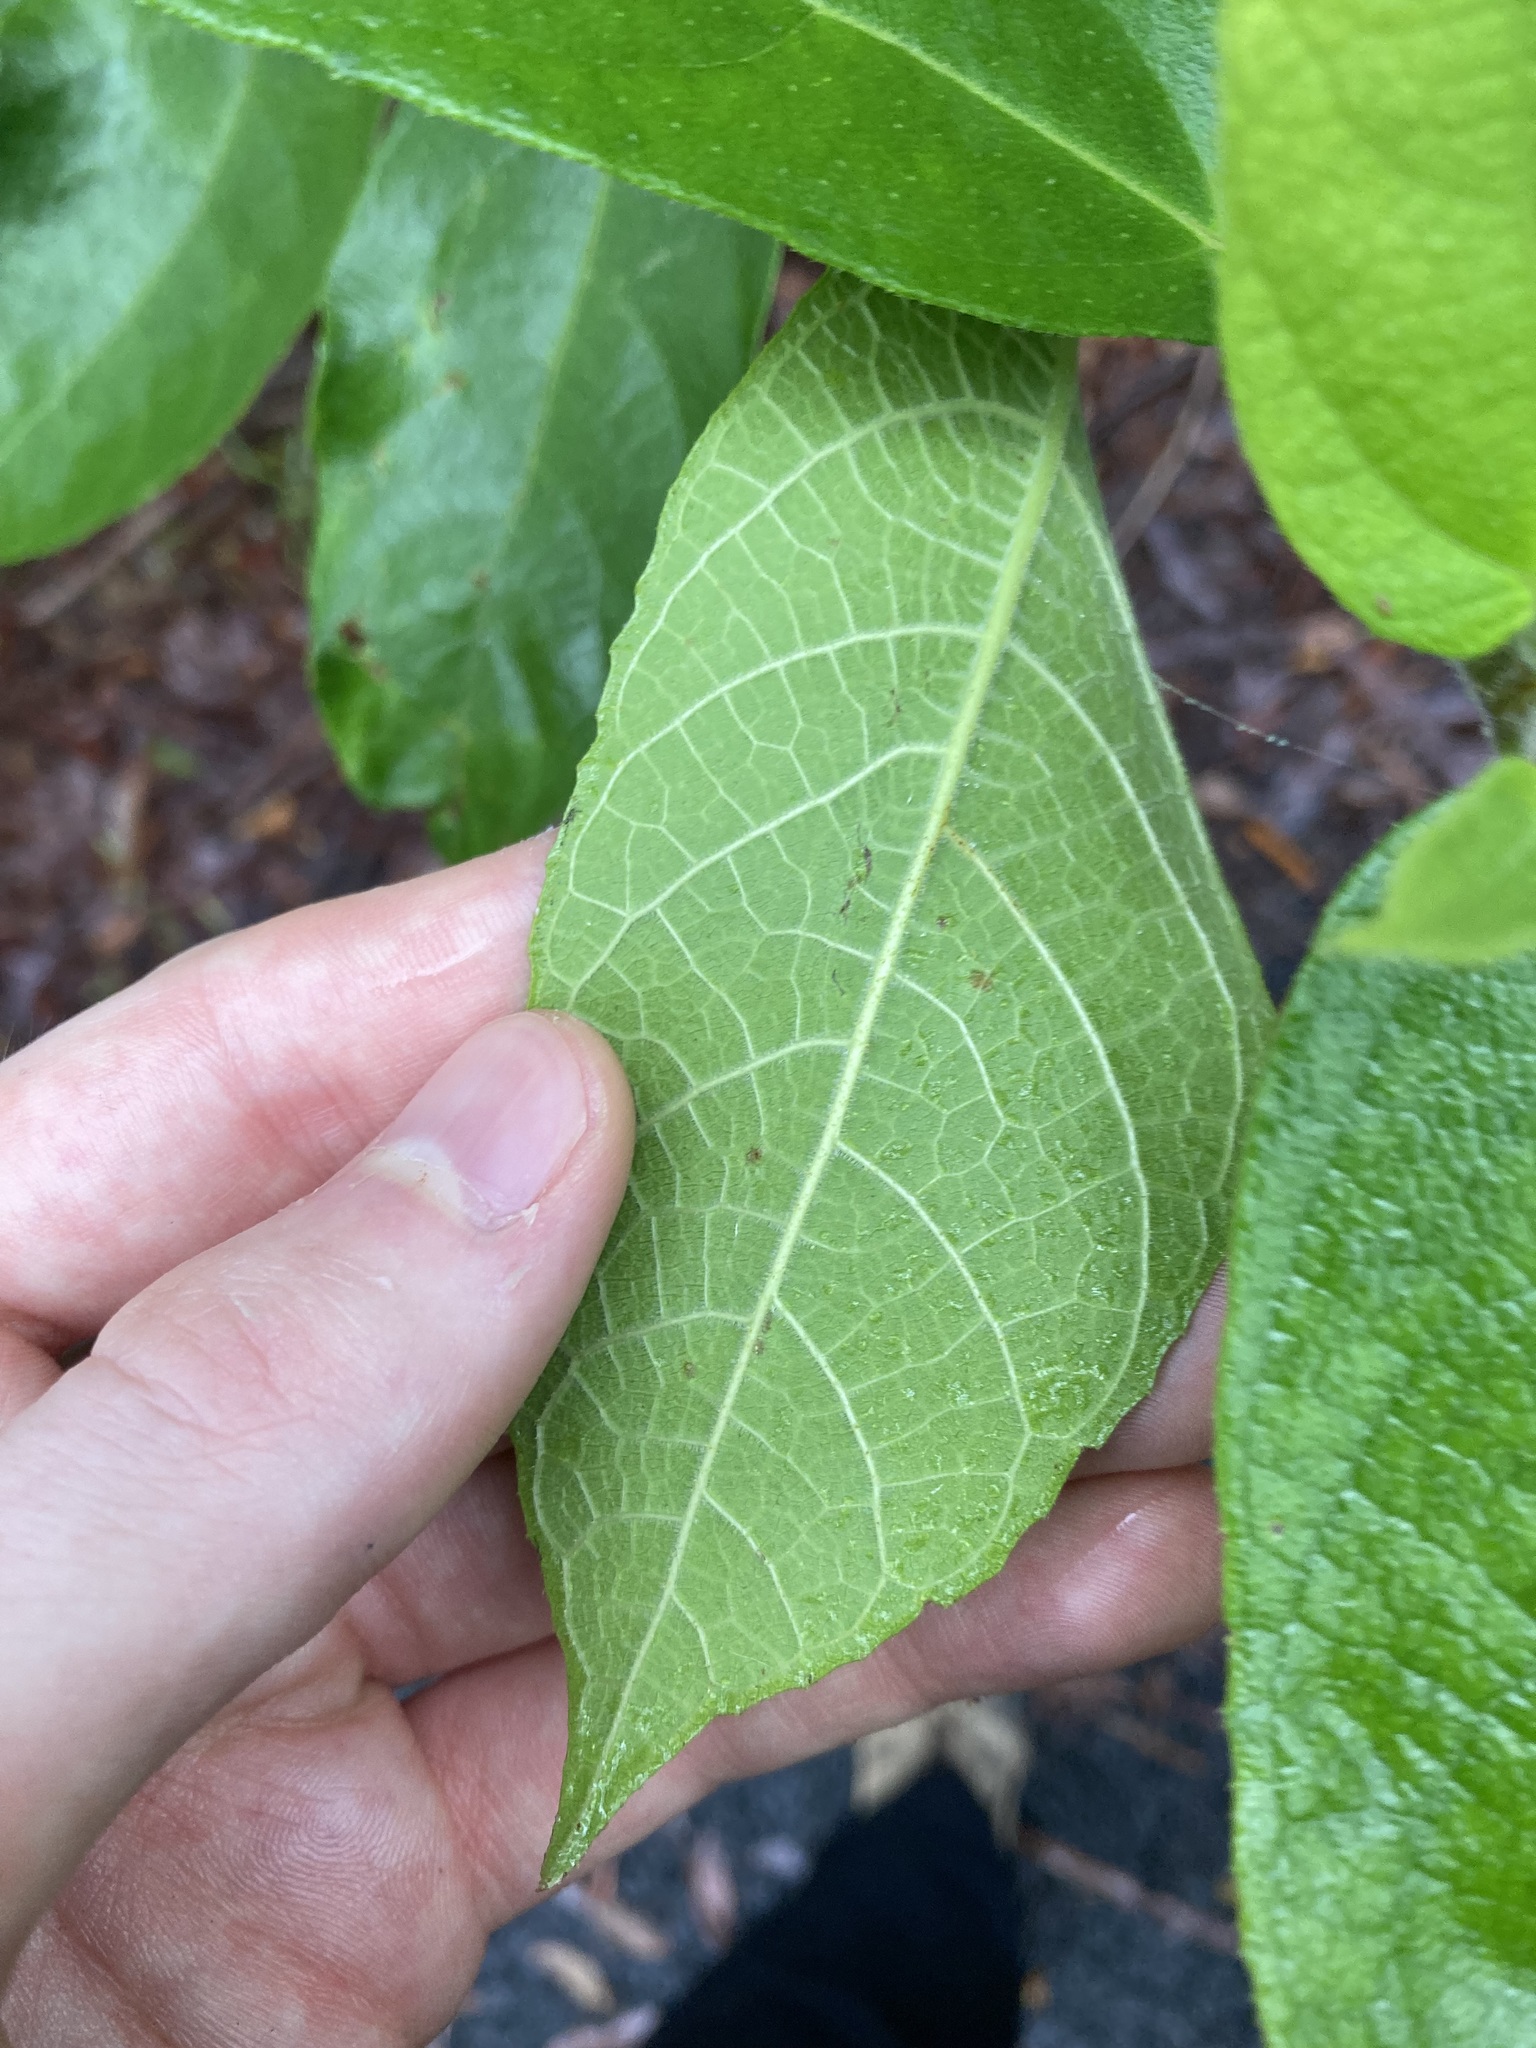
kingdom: Plantae
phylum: Tracheophyta
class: Magnoliopsida
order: Rosales
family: Moraceae
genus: Ficus
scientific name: Ficus coronata
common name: Creek sandpaper fig
